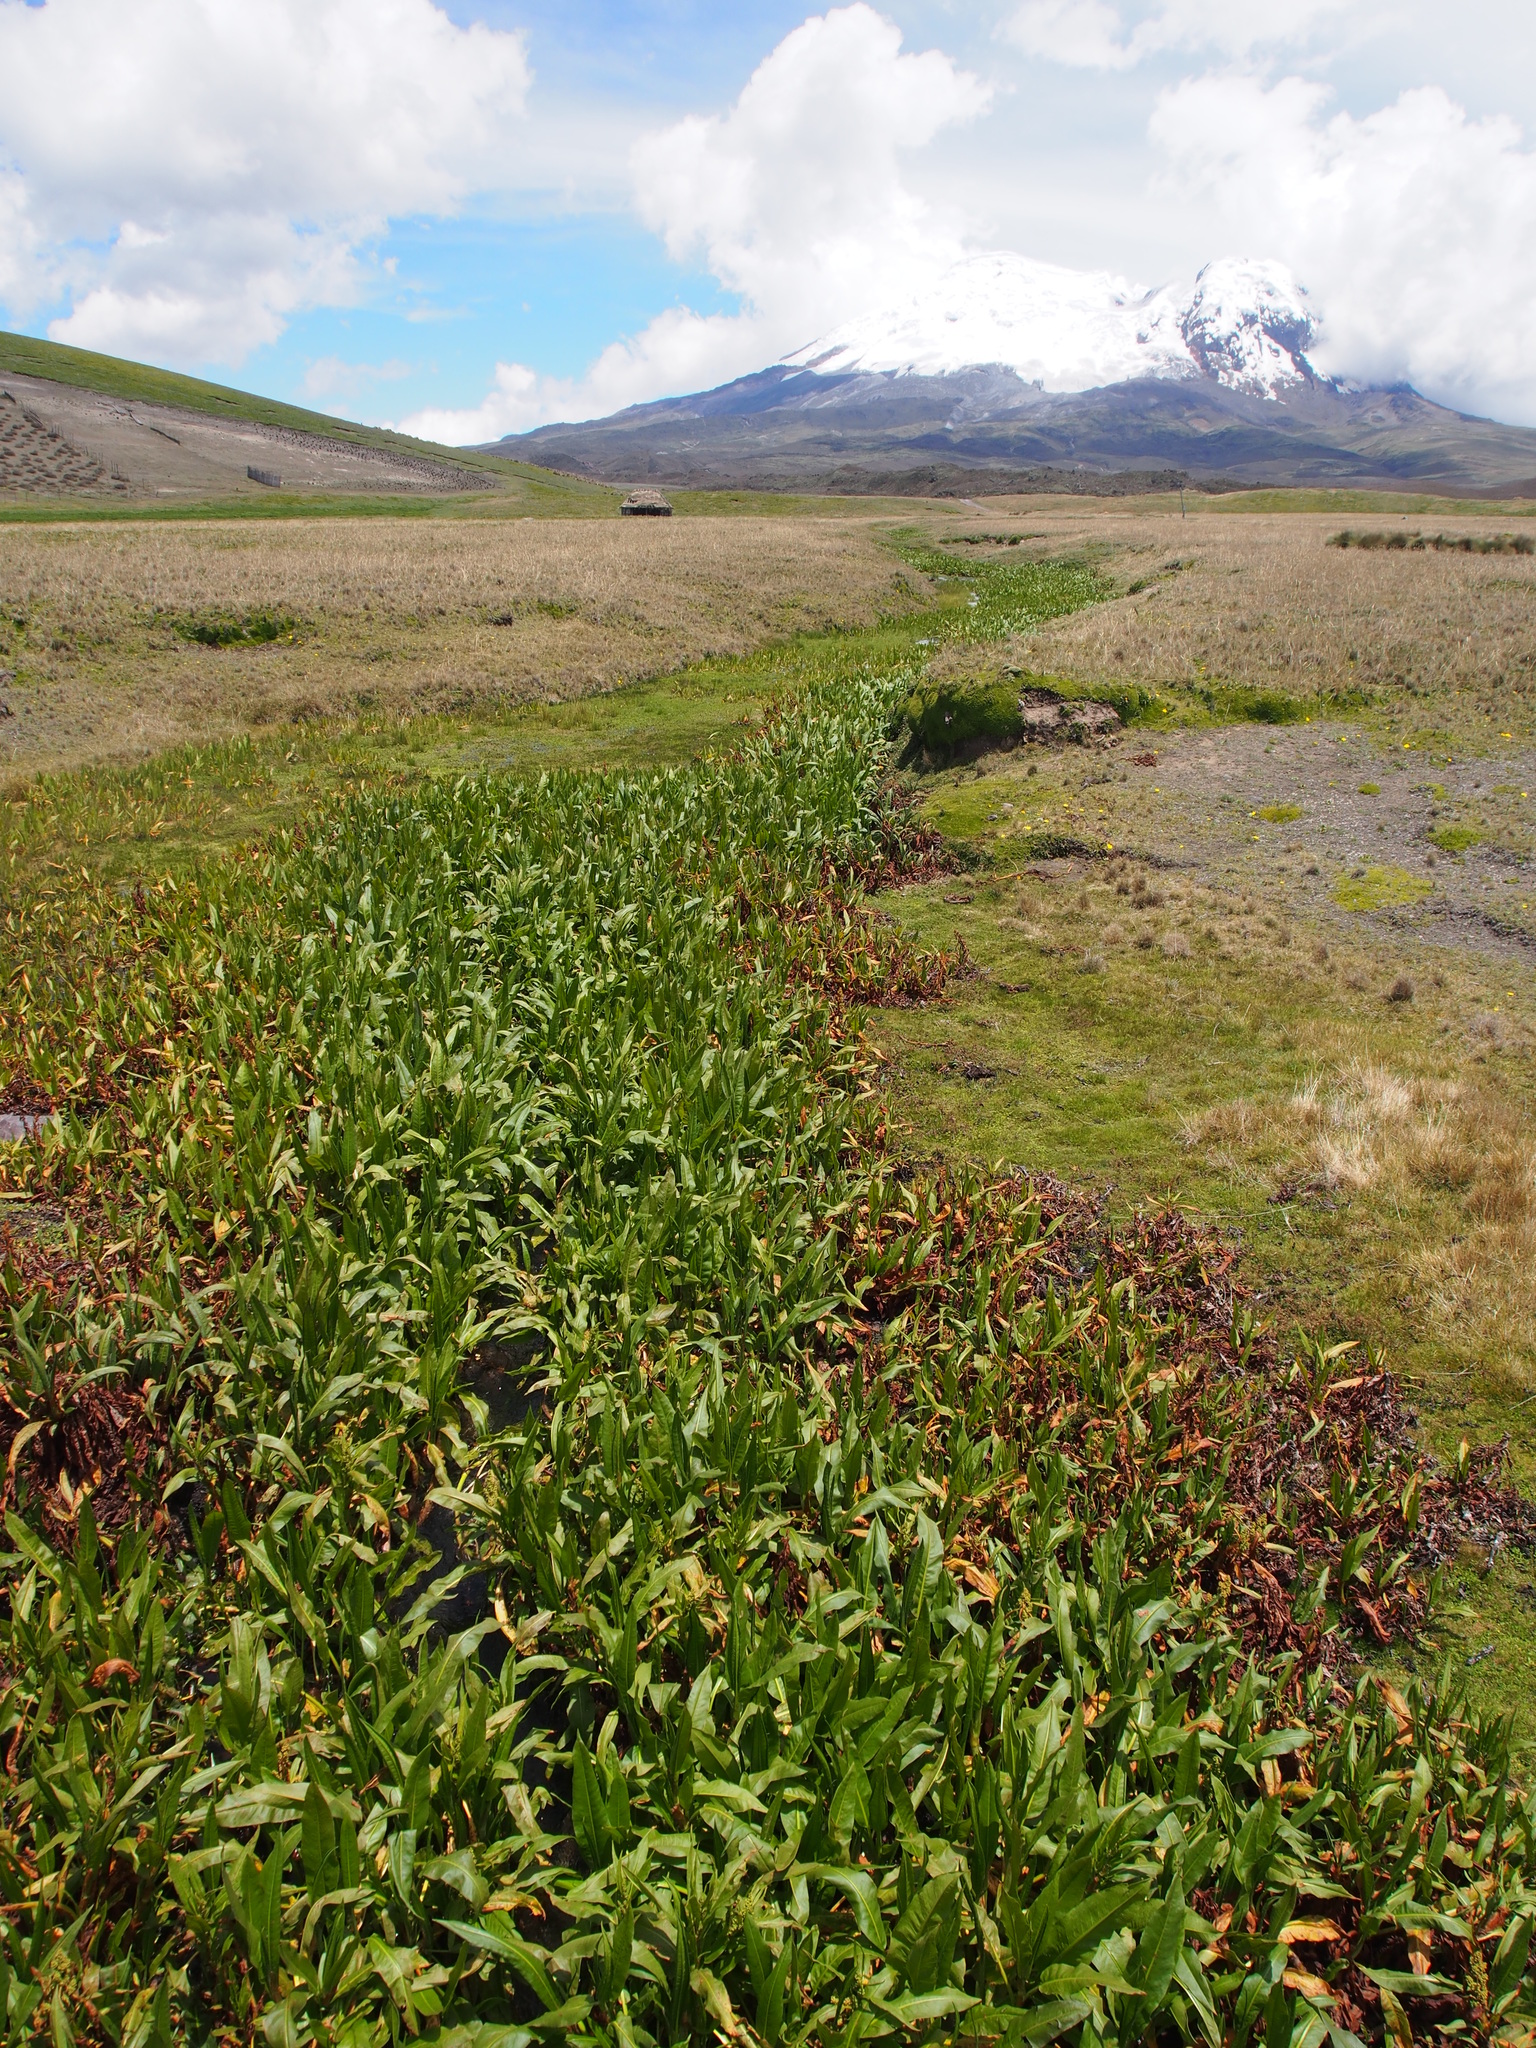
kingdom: Plantae
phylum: Tracheophyta
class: Magnoliopsida
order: Caryophyllales
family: Polygonaceae
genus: Rumex
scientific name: Rumex tolimensis
